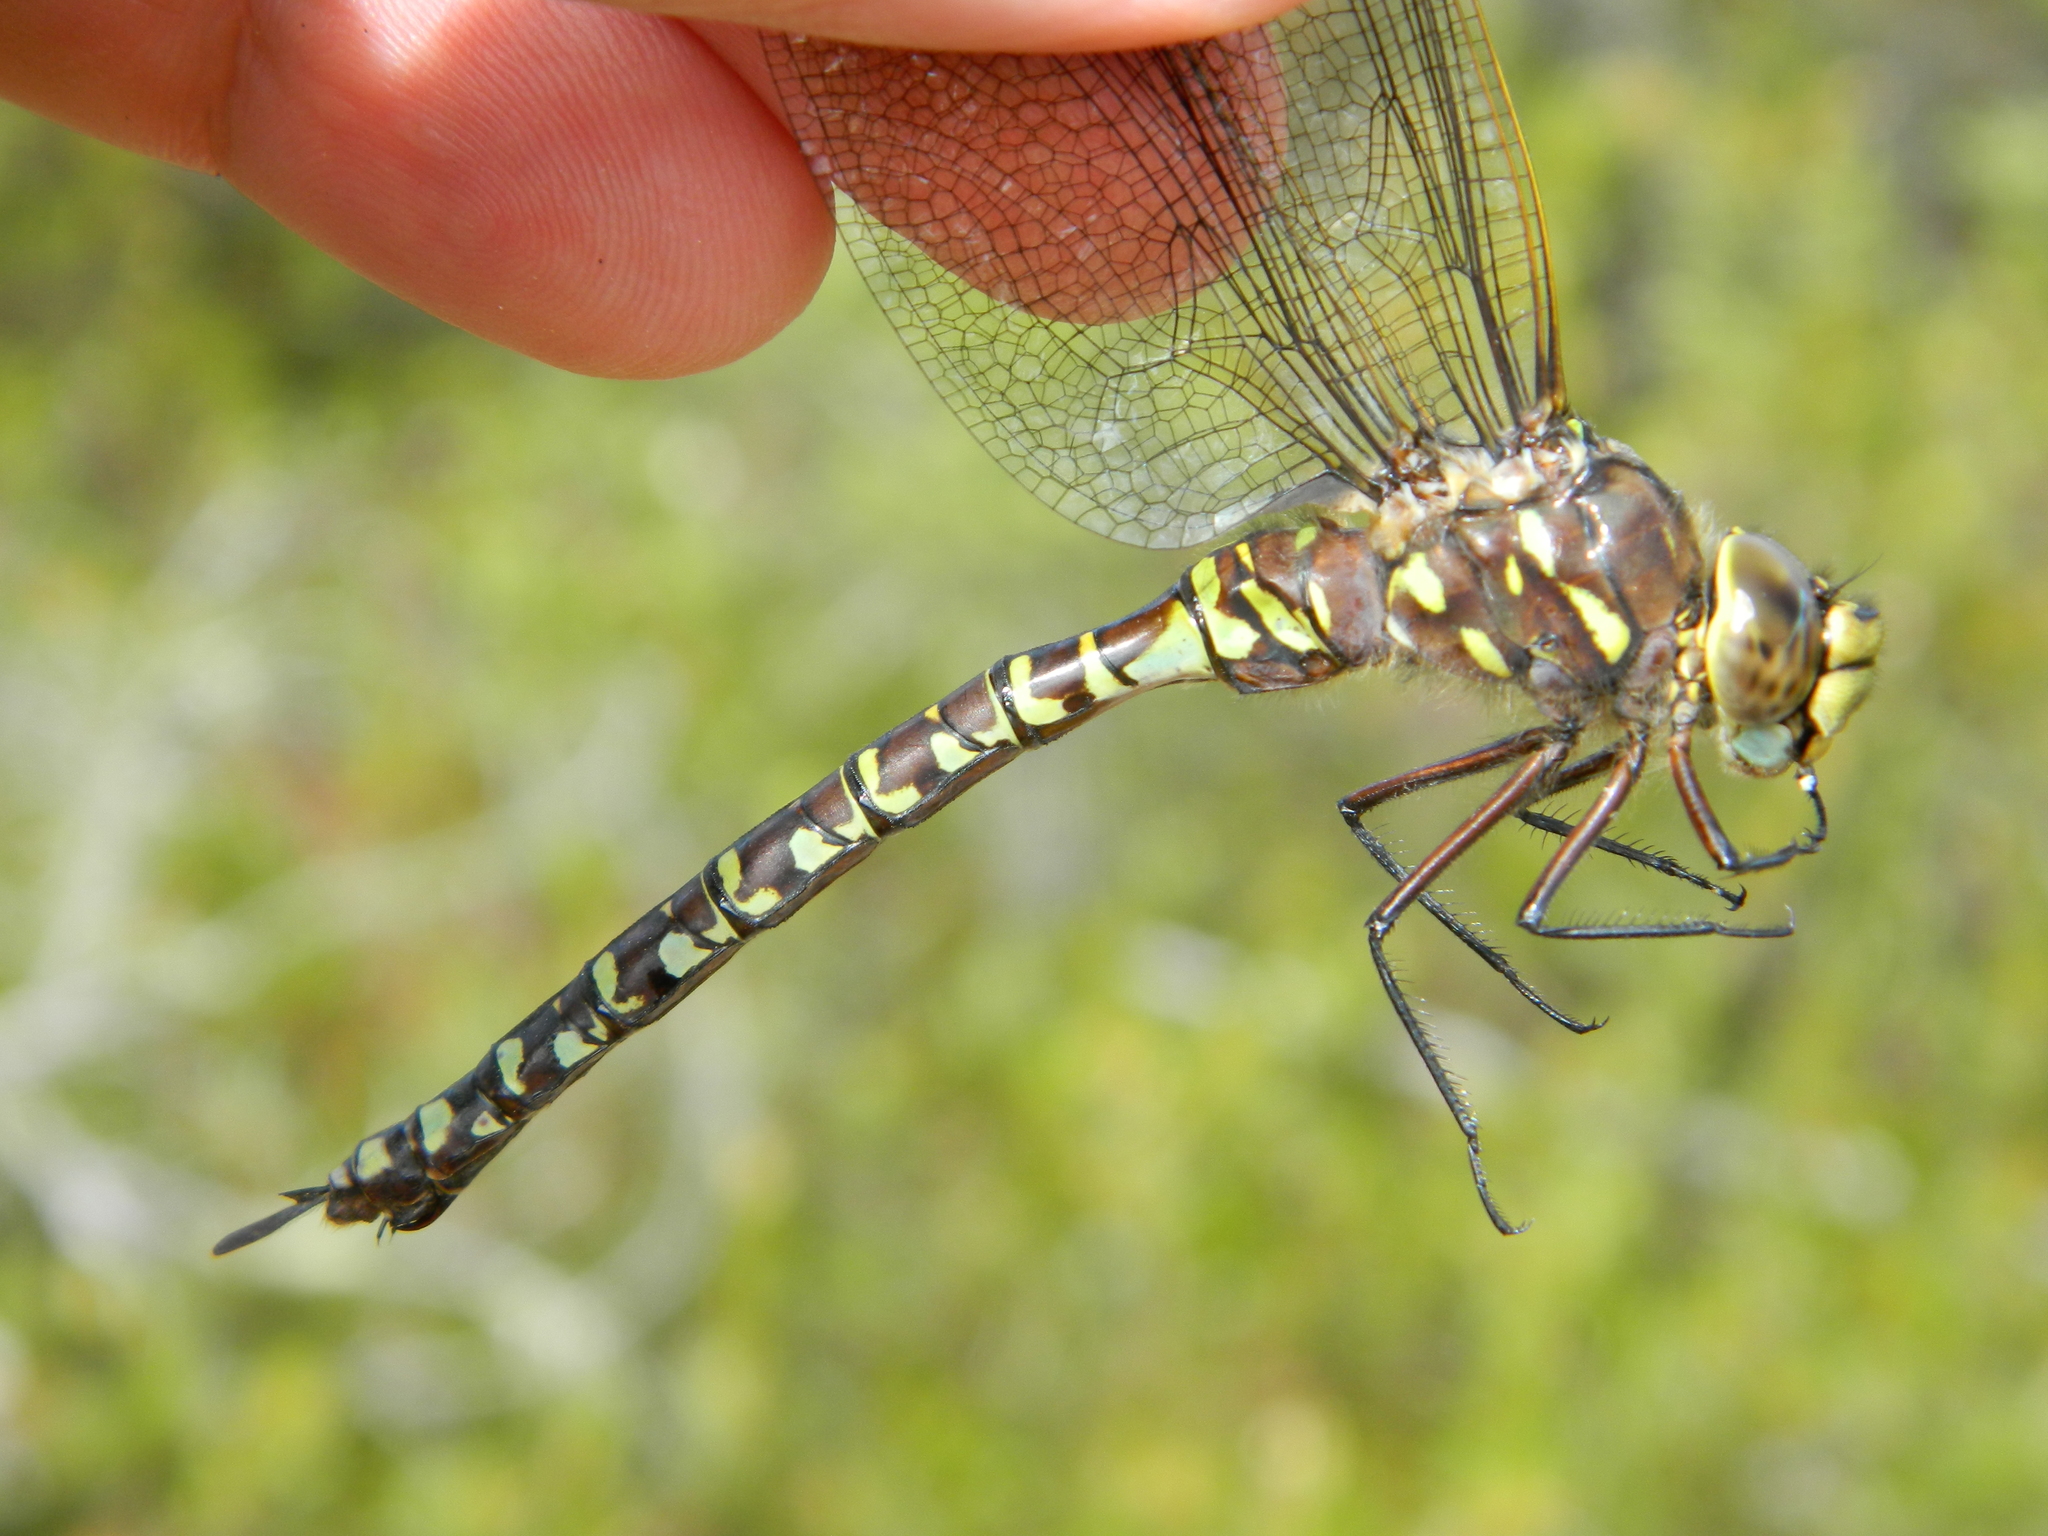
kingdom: Animalia
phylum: Arthropoda
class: Insecta
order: Odonata
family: Aeshnidae
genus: Aeshna
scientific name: Aeshna interrupta
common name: Variable darner
